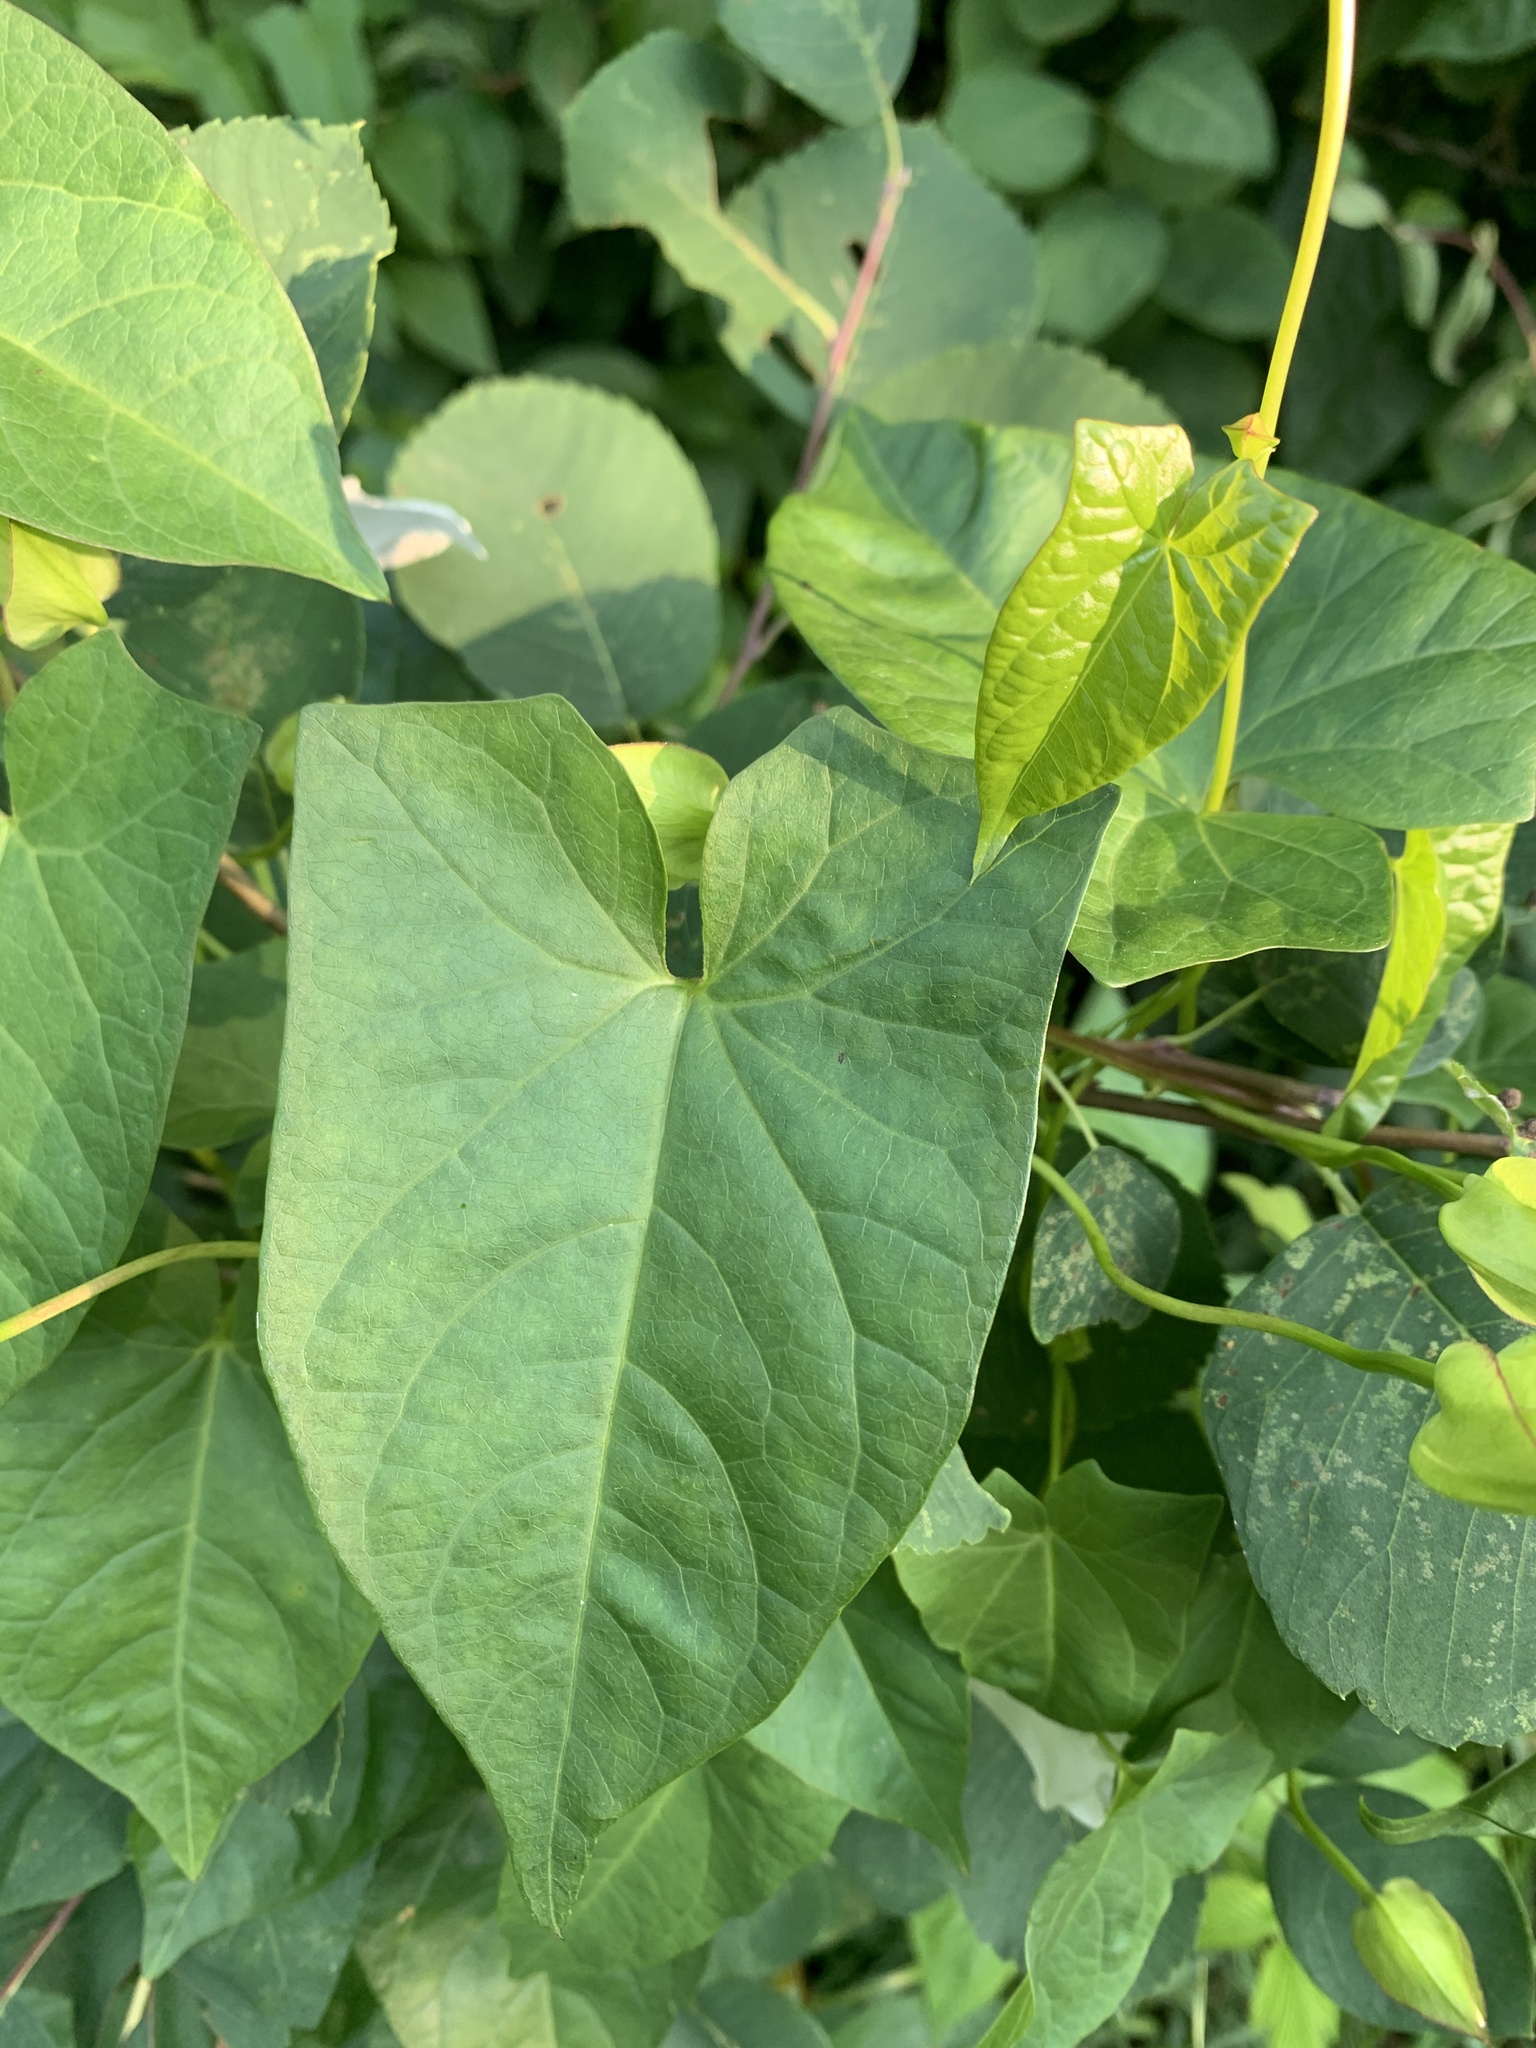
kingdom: Plantae
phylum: Tracheophyta
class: Magnoliopsida
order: Solanales
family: Convolvulaceae
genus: Calystegia
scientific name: Calystegia sepium
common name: Hedge bindweed
